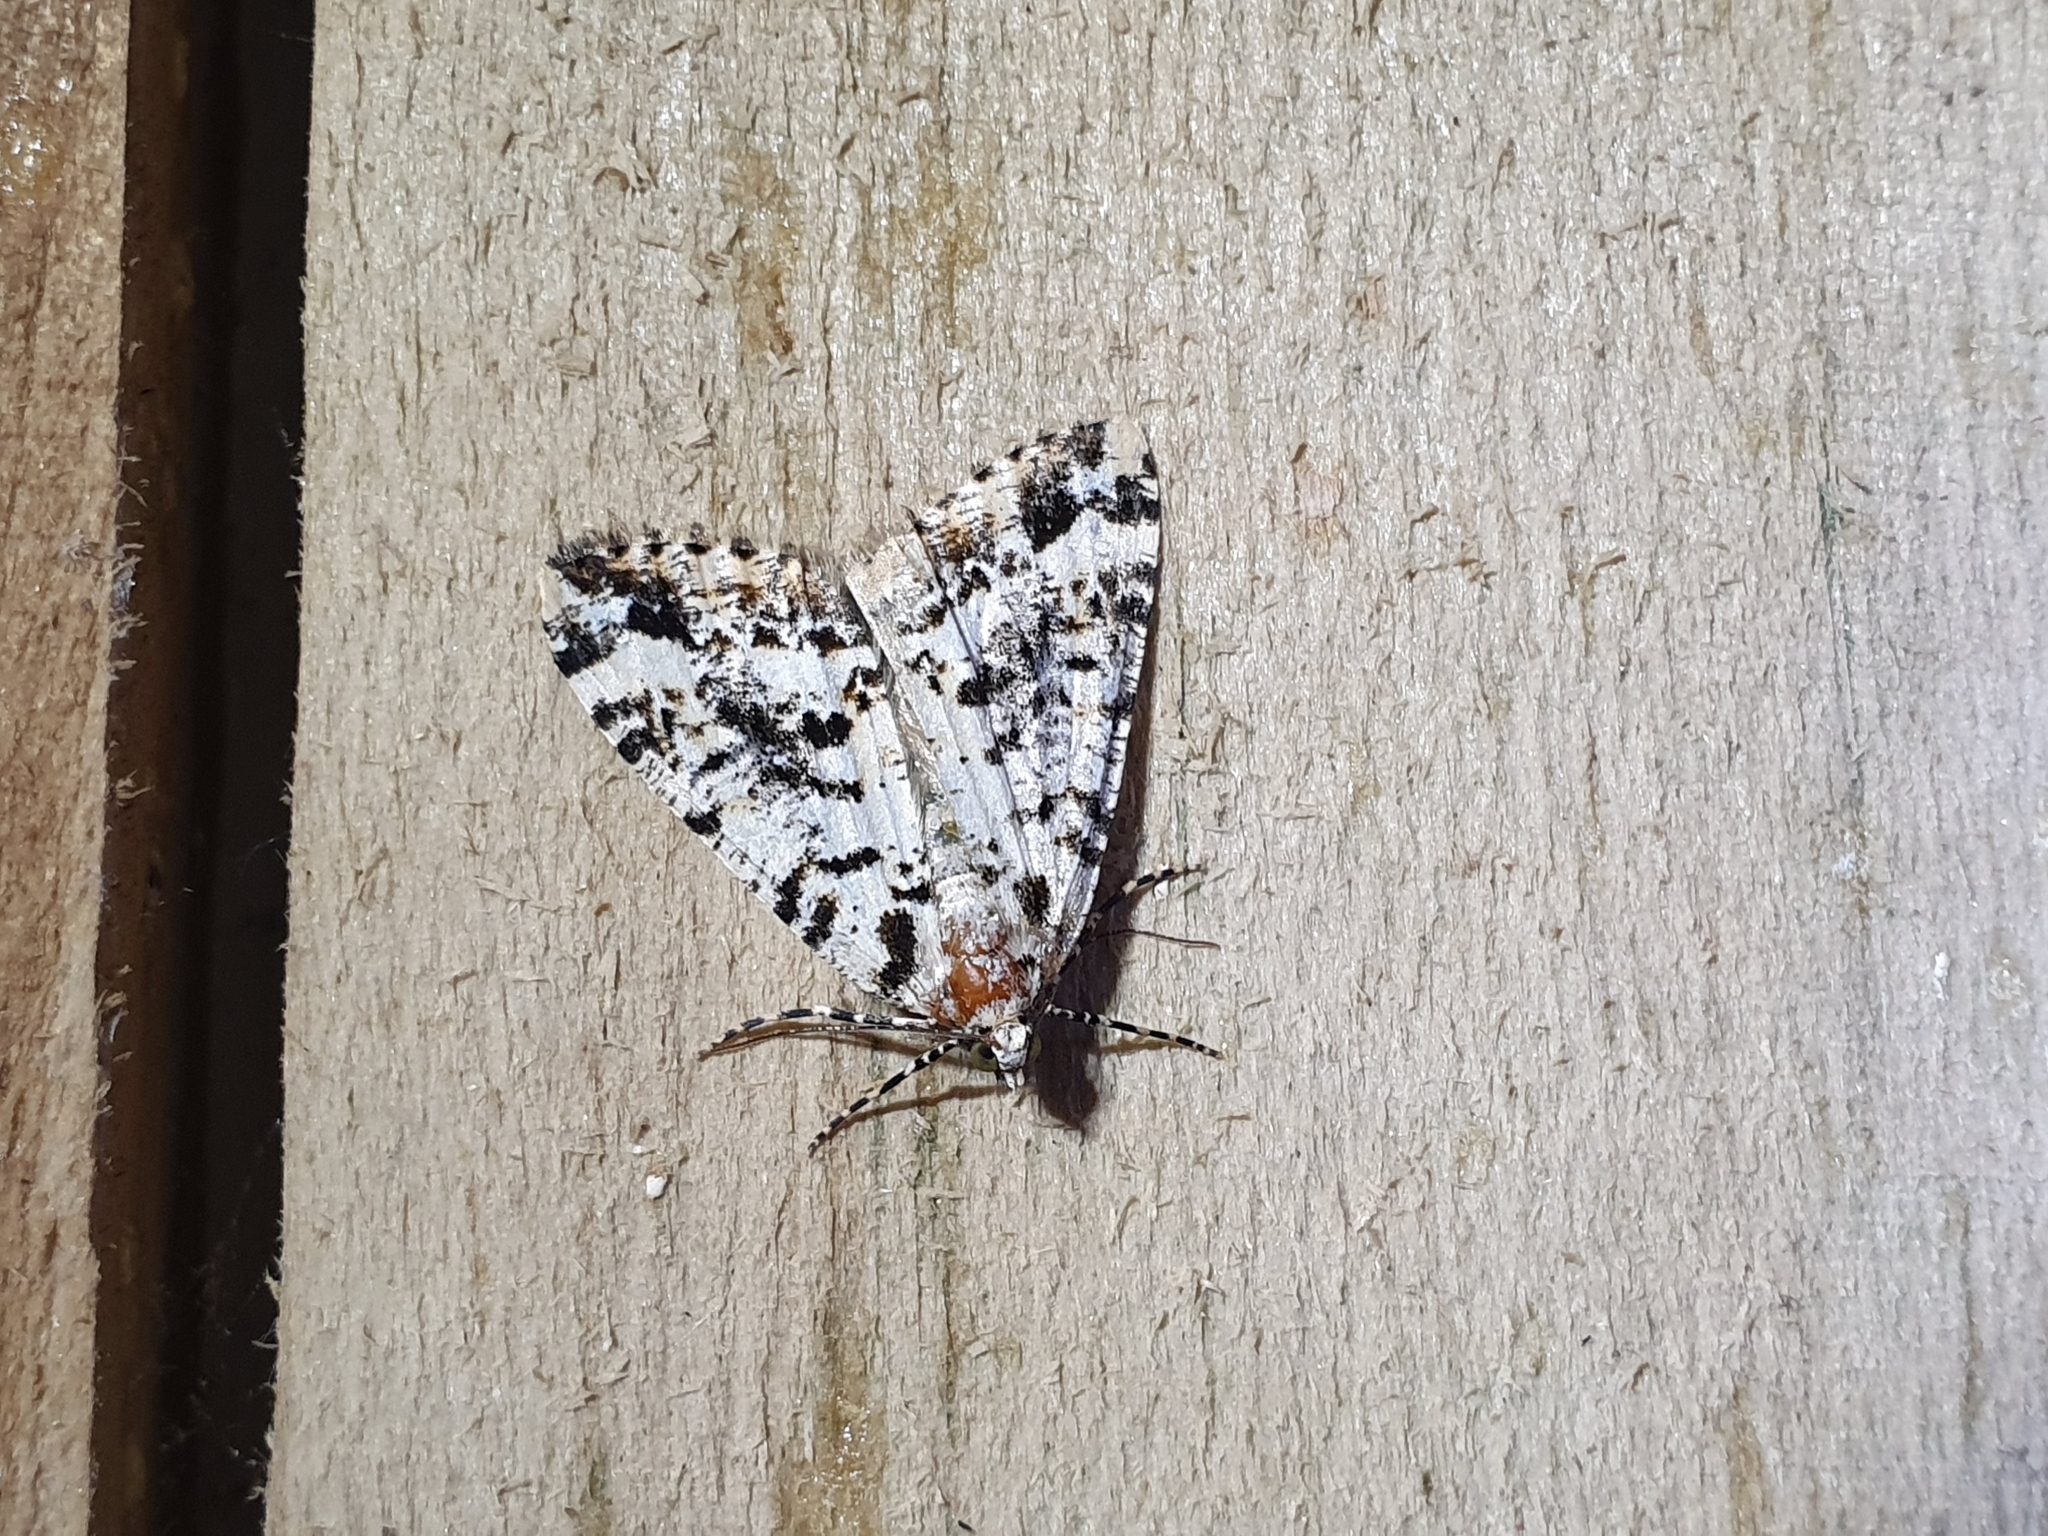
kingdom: Animalia
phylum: Arthropoda
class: Insecta
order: Lepidoptera
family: Geometridae
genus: Pseudocoremia
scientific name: Pseudocoremia leucelaea
